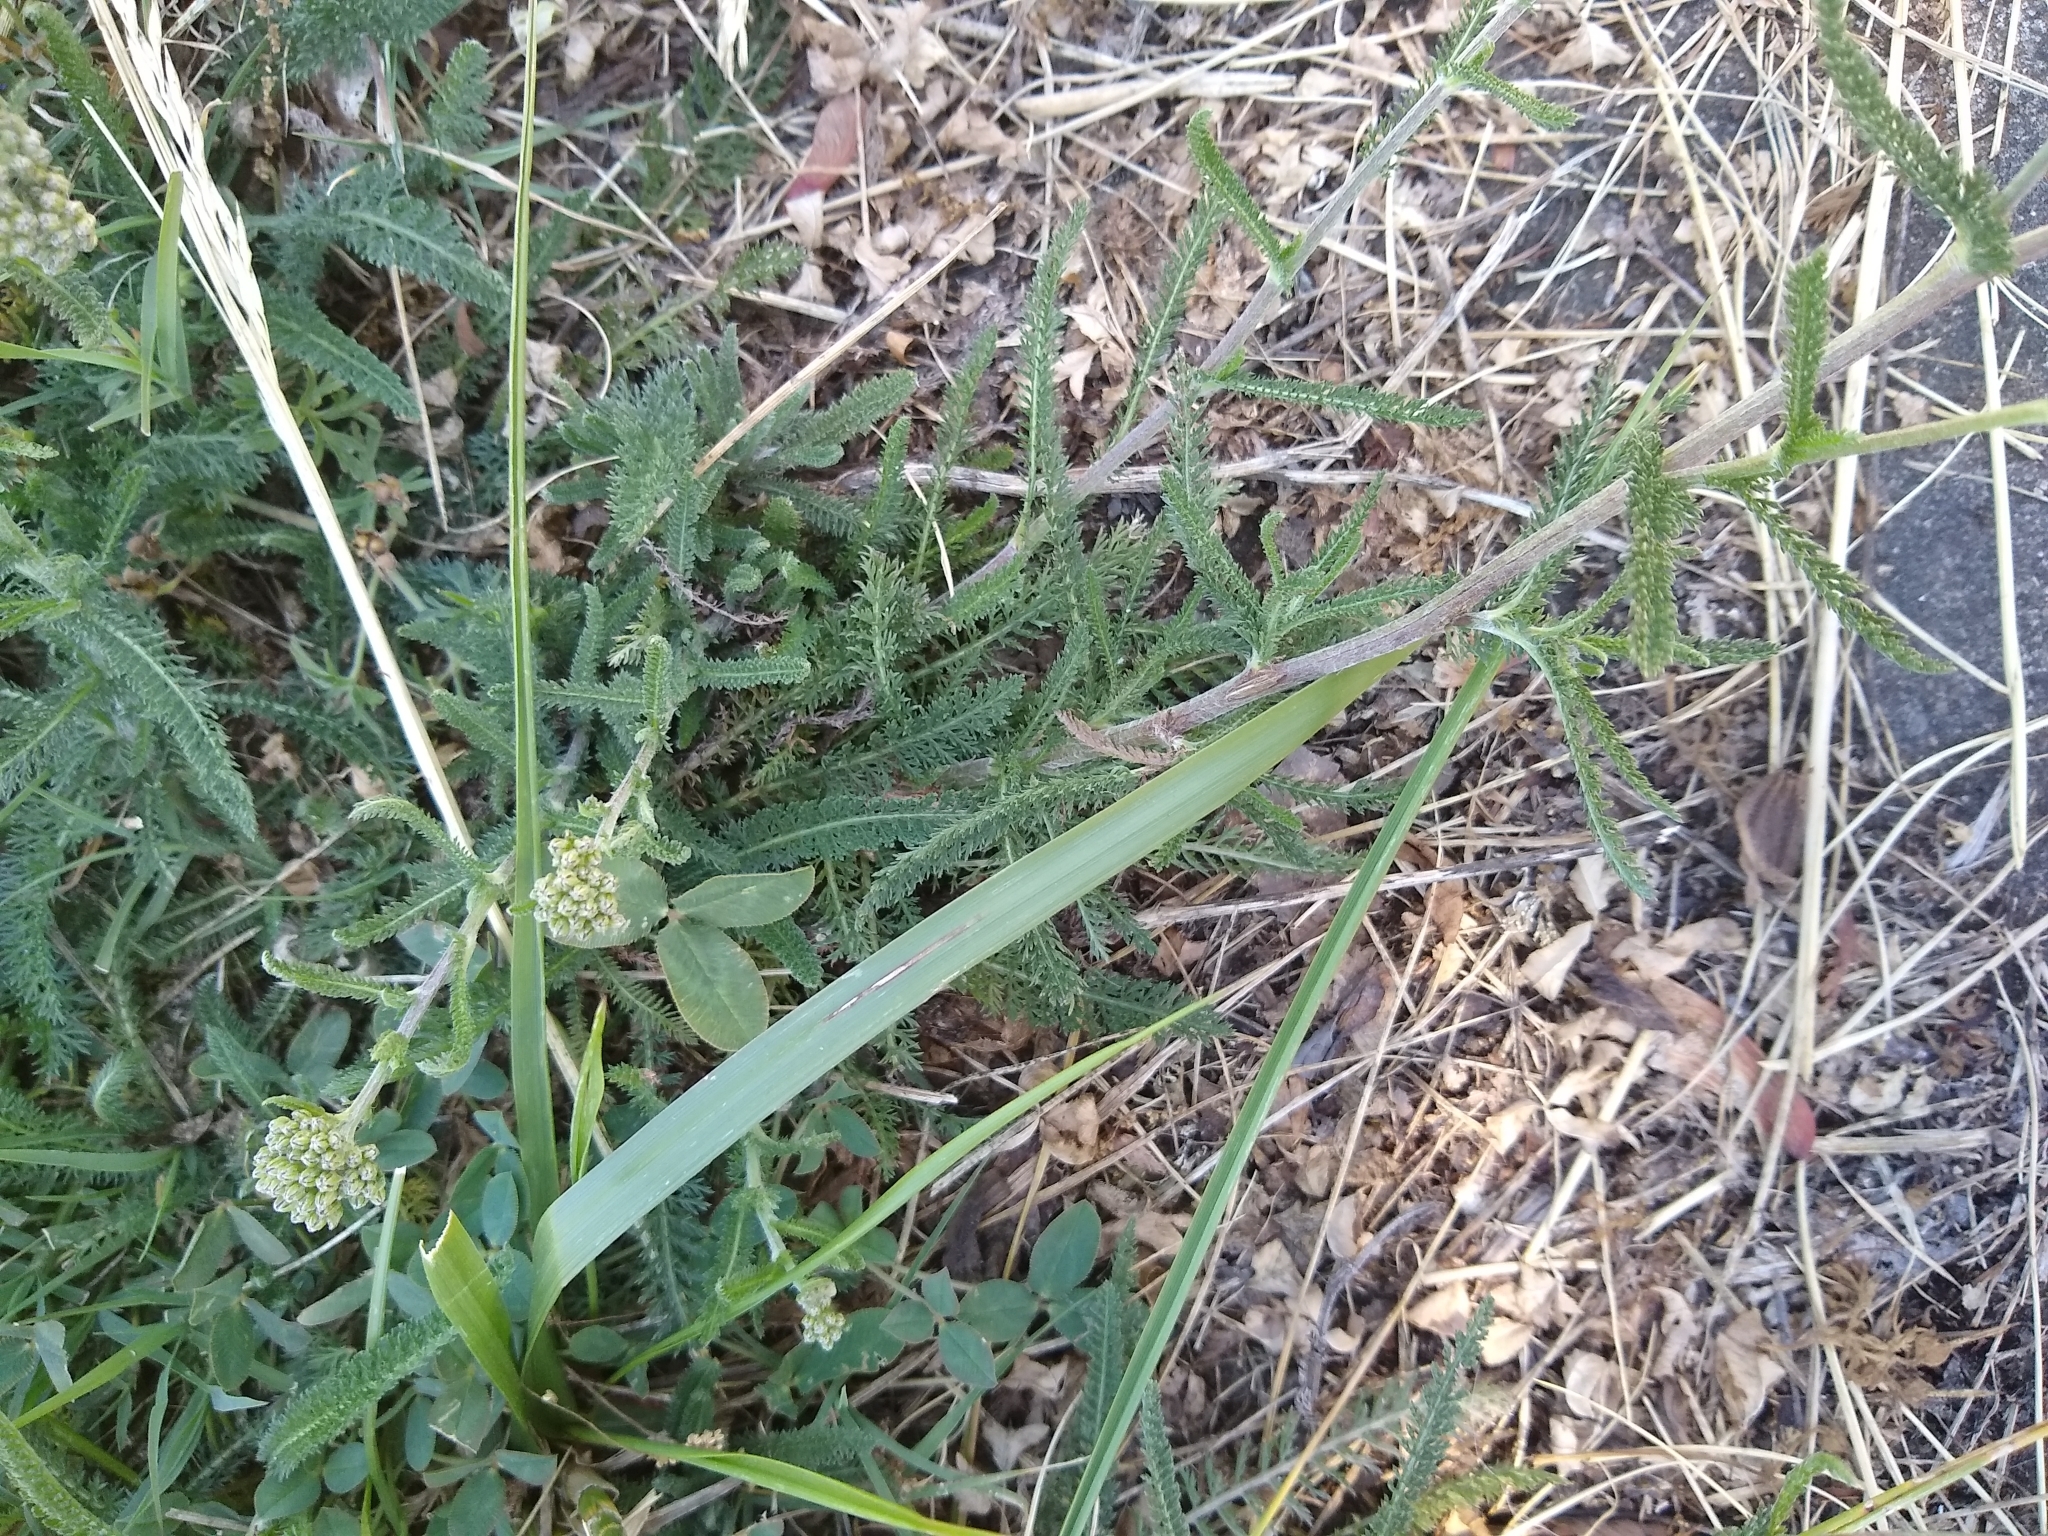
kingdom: Plantae
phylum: Tracheophyta
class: Magnoliopsida
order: Asterales
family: Asteraceae
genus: Achillea
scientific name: Achillea millefolium
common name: Yarrow
